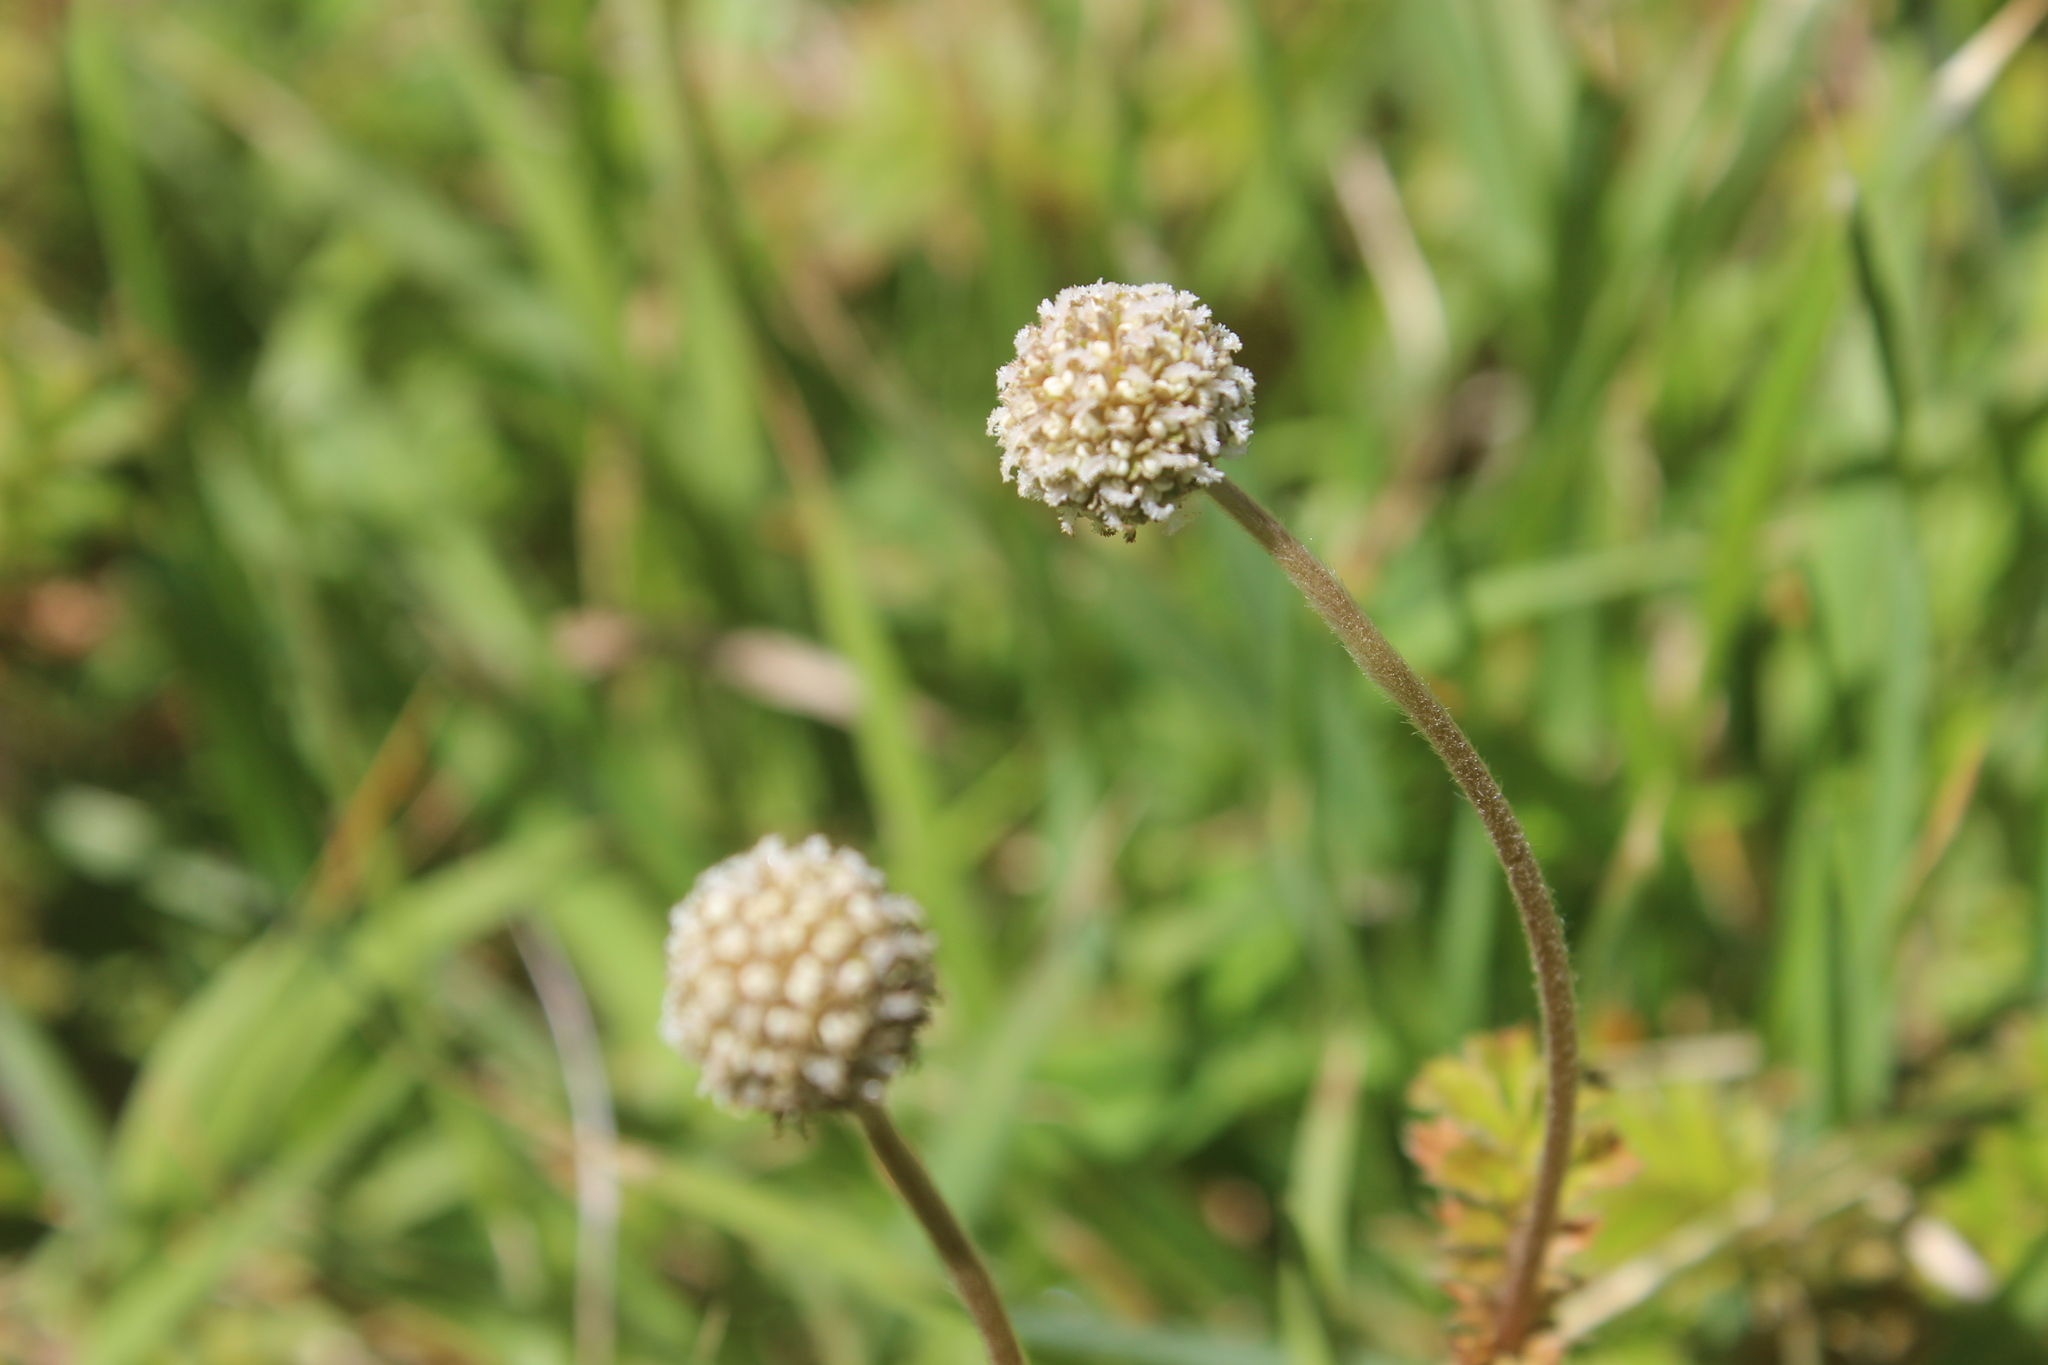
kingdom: Plantae
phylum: Tracheophyta
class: Magnoliopsida
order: Rosales
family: Rosaceae
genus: Acaena
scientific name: Acaena anserinifolia
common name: Bronze pirri-pirri-bur
